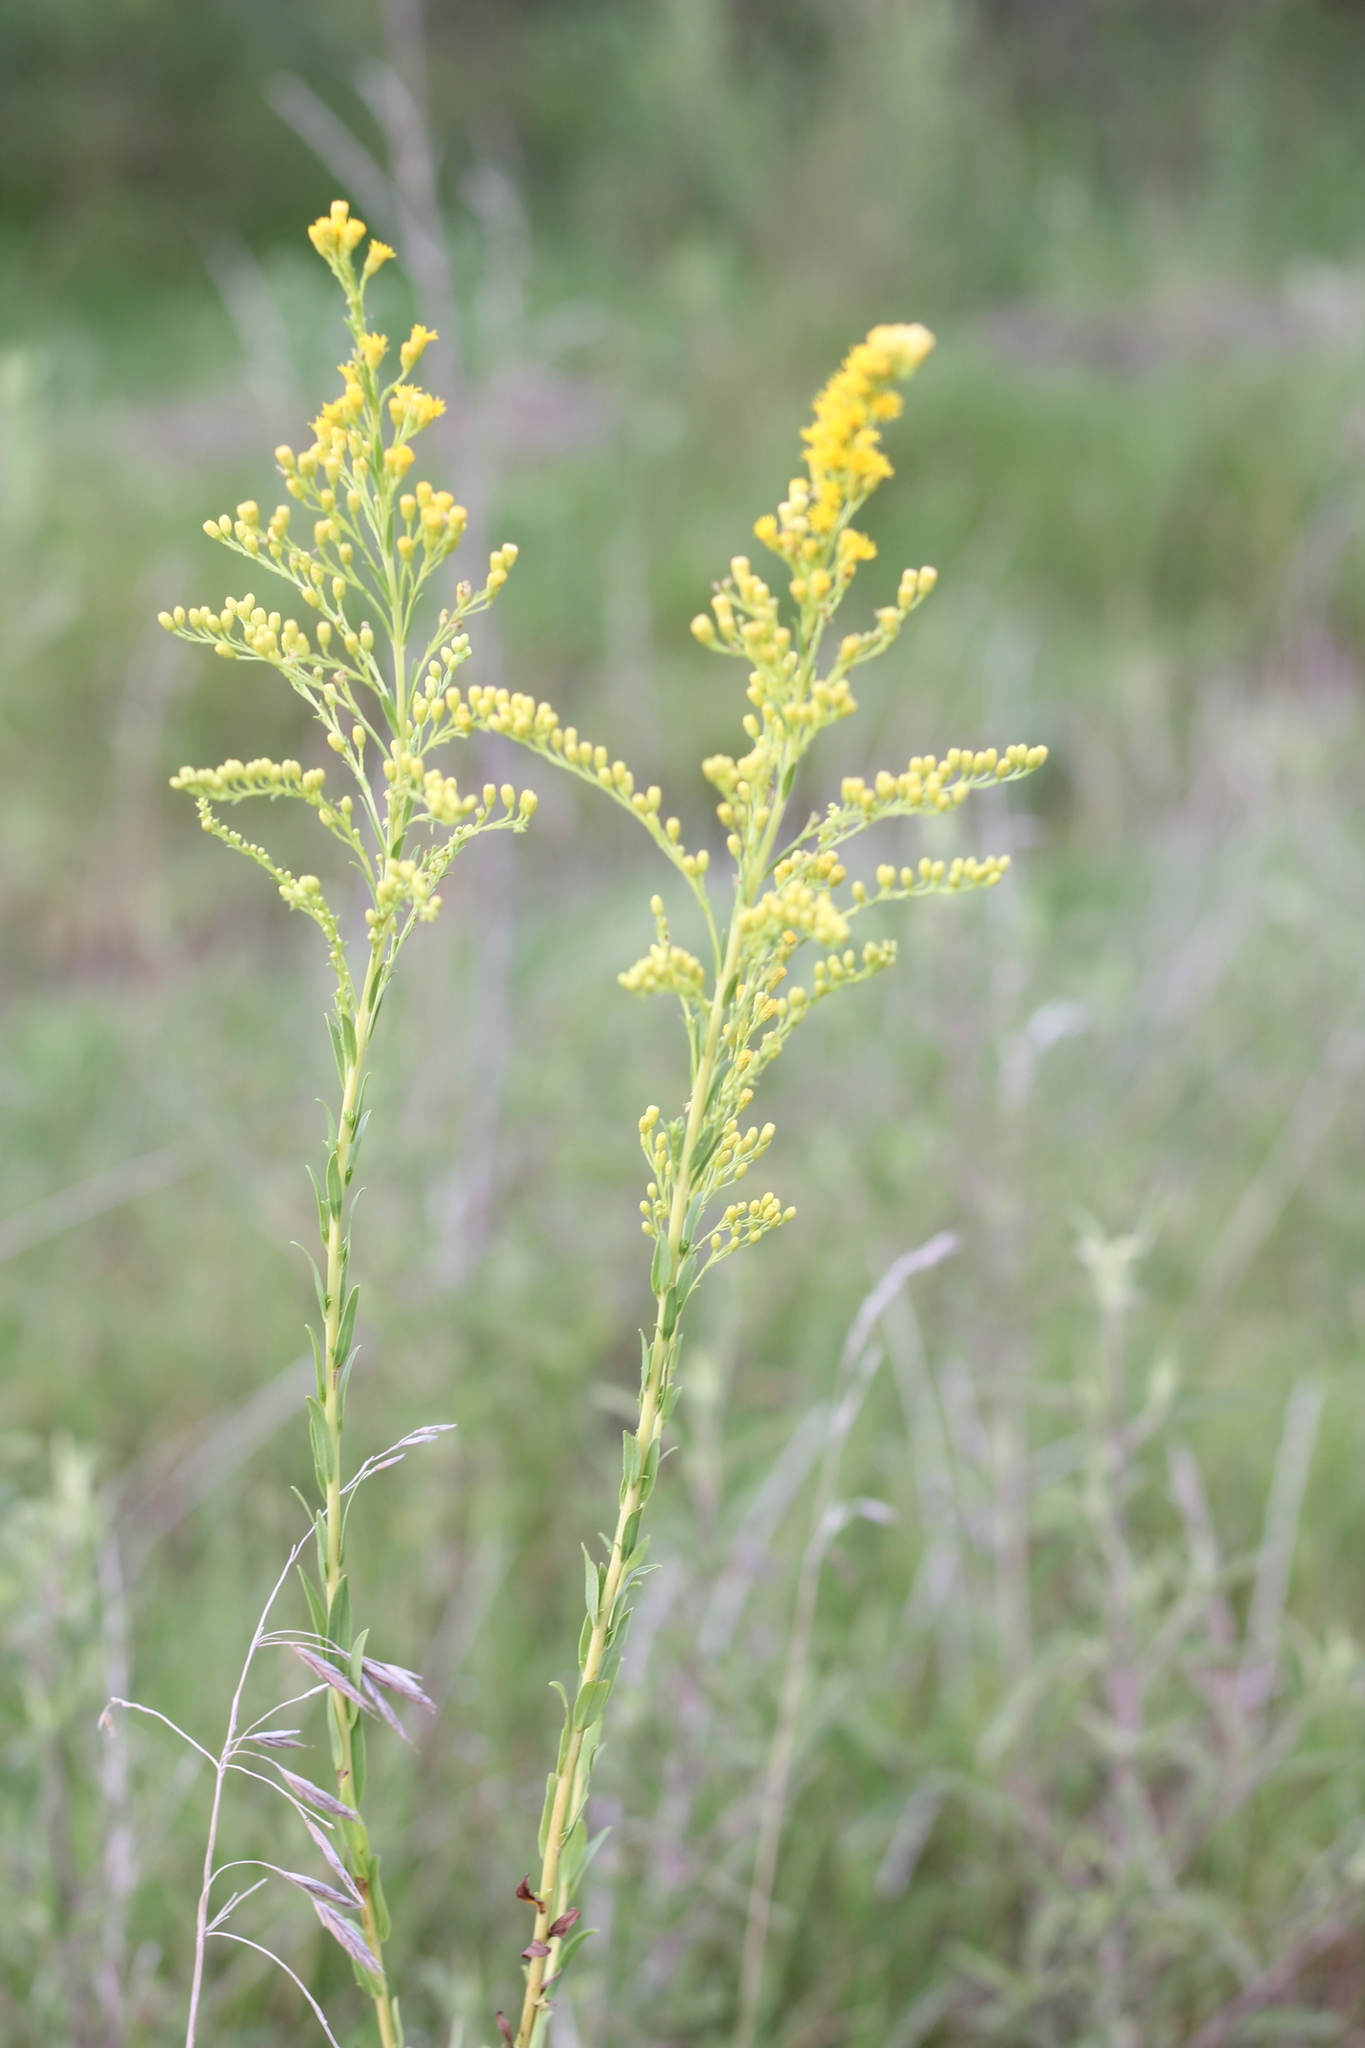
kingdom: Plantae
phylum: Tracheophyta
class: Magnoliopsida
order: Asterales
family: Asteraceae
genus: Solidago
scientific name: Solidago chilensis
